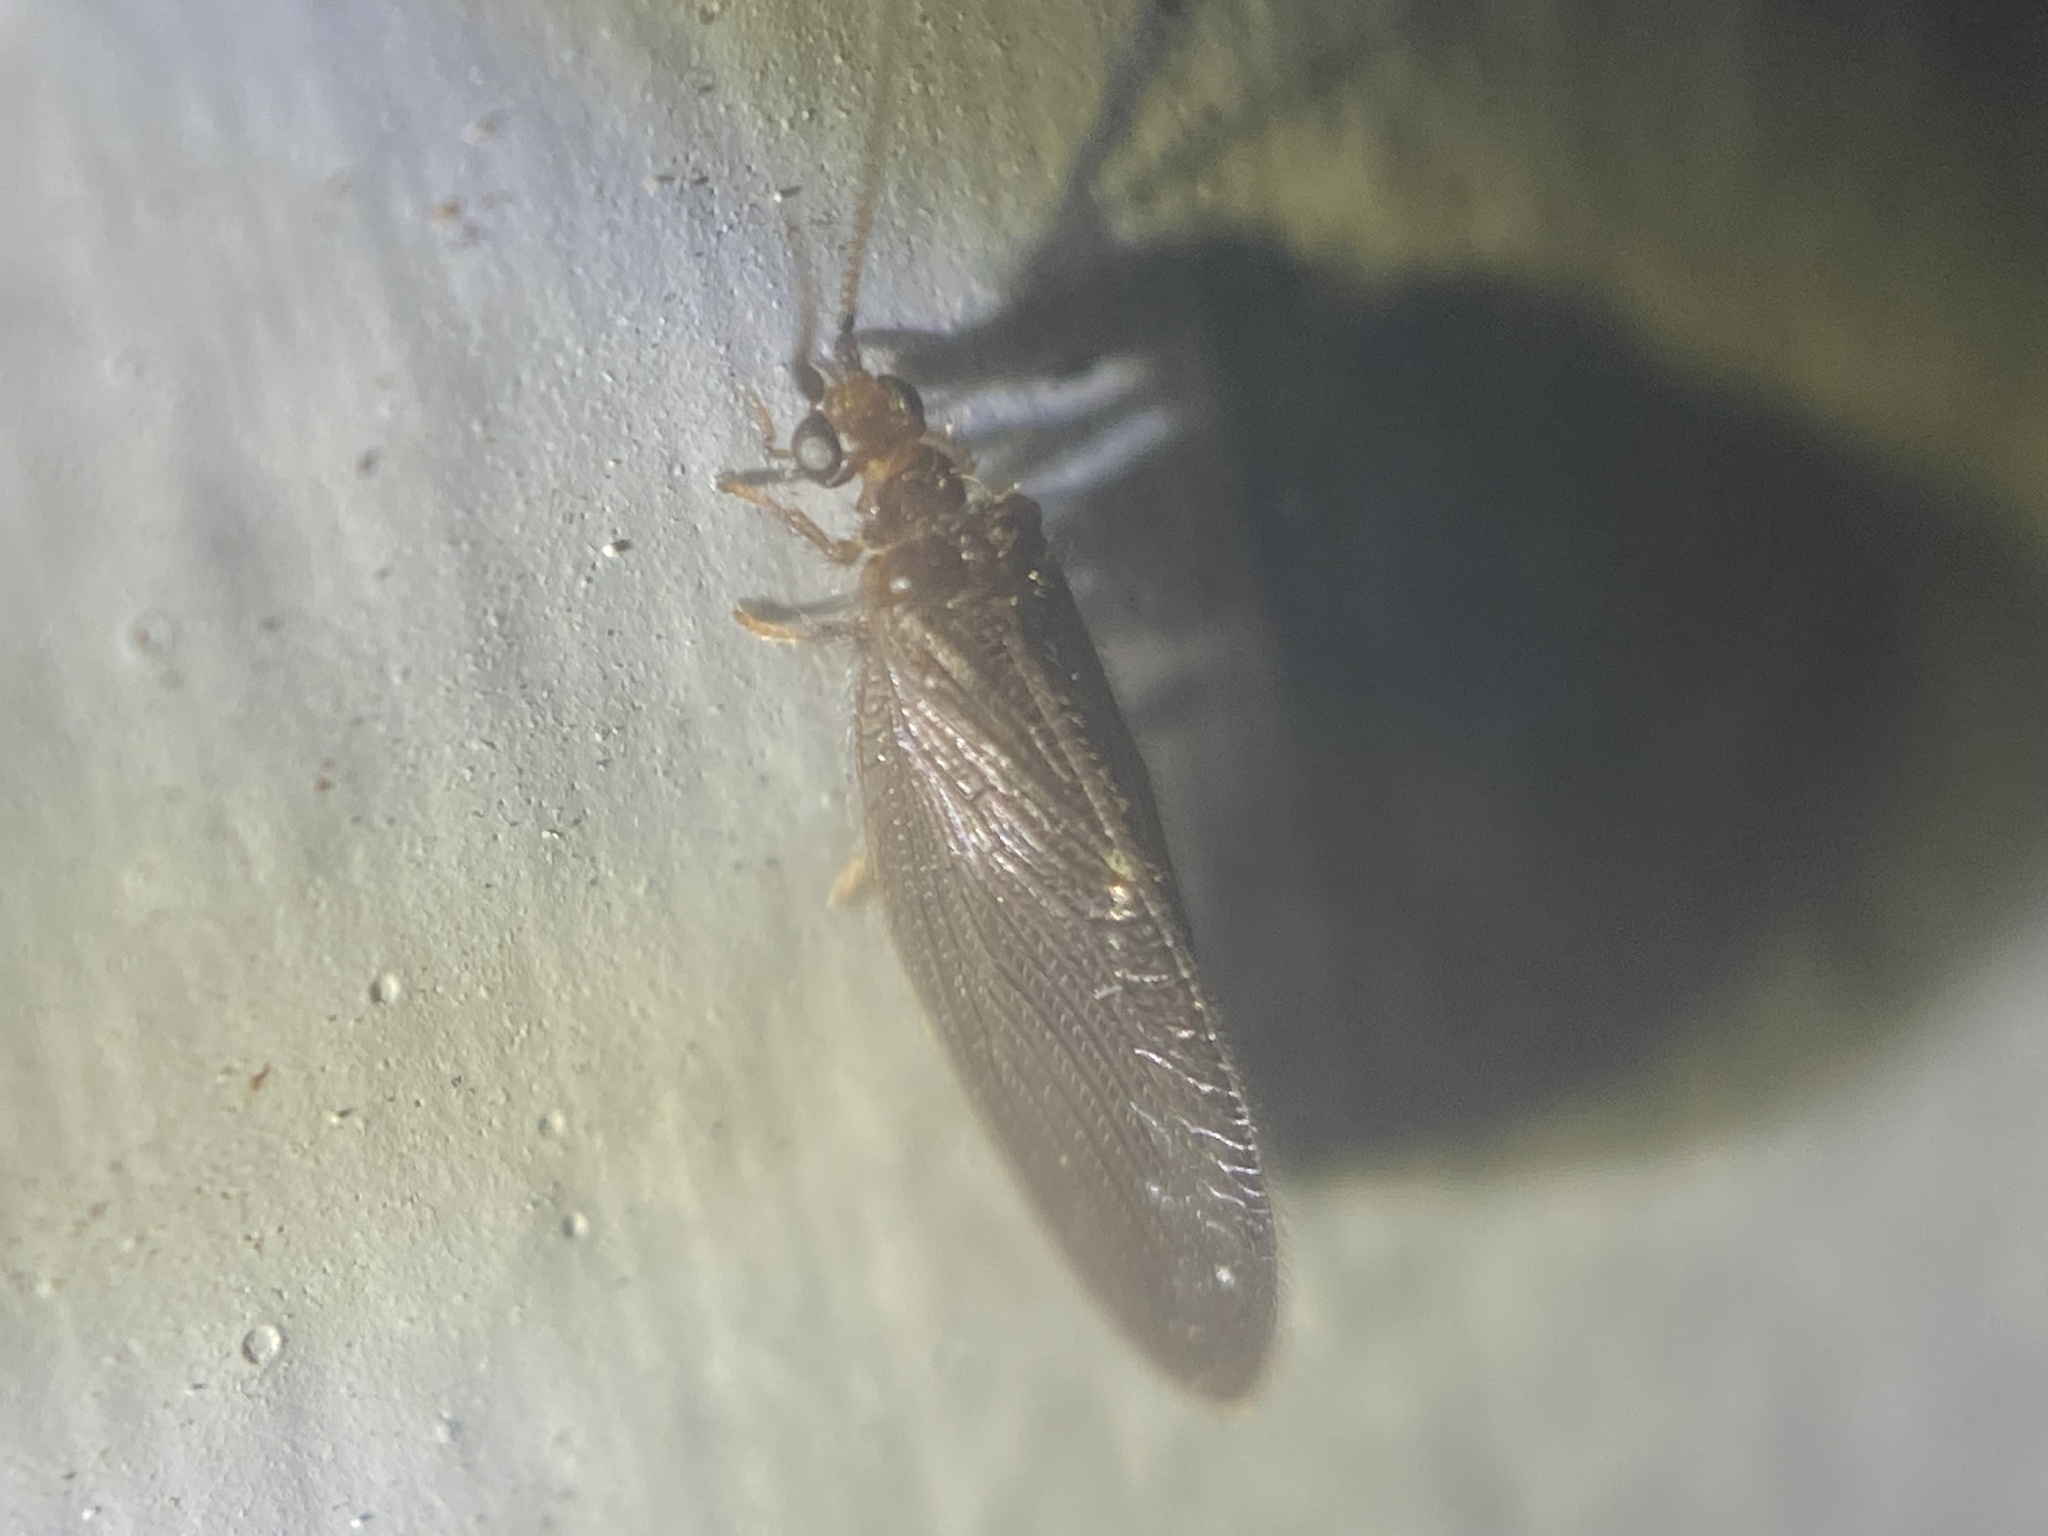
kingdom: Animalia
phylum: Arthropoda
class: Insecta
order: Neuroptera
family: Sisyridae
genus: Sisyra
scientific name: Sisyra vicaria
